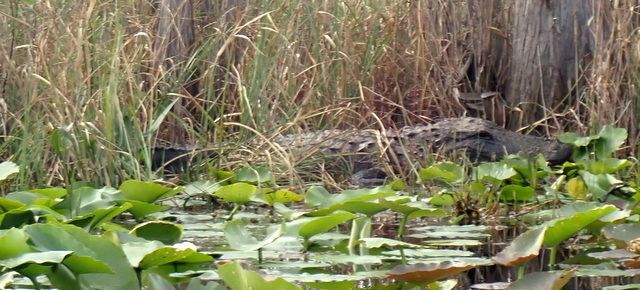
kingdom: Animalia
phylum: Chordata
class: Crocodylia
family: Alligatoridae
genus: Alligator
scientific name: Alligator mississippiensis
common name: American alligator
